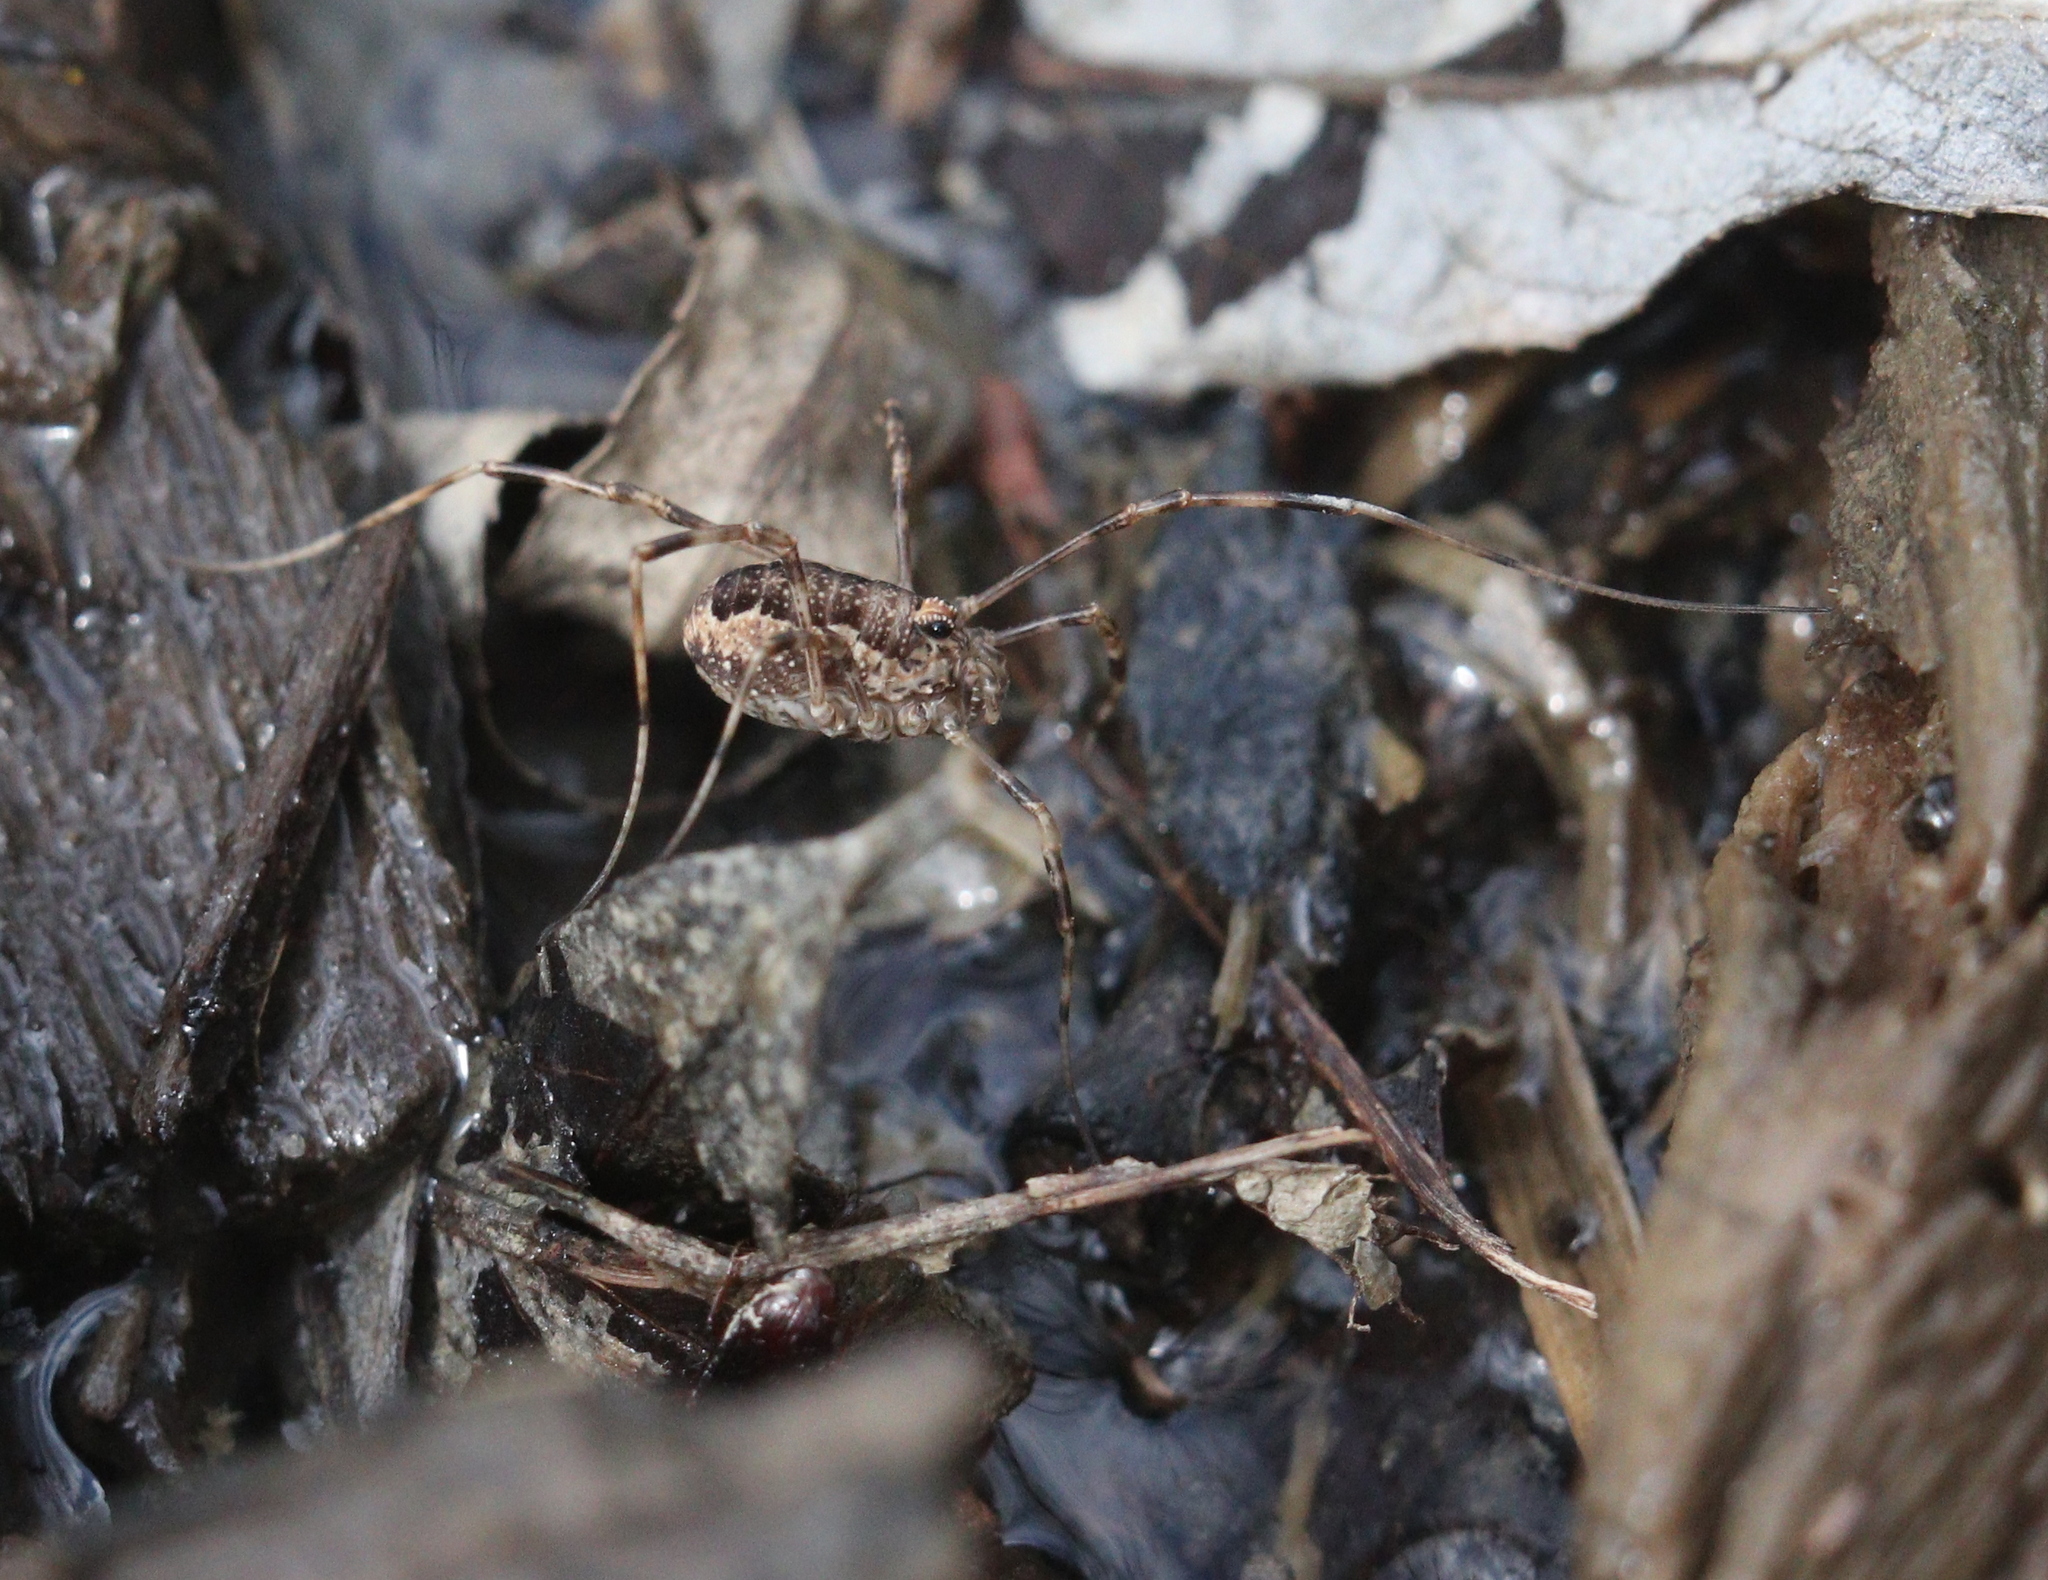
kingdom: Animalia
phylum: Arthropoda
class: Arachnida
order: Opiliones
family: Phalangiidae
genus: Rilaena
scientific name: Rilaena triangularis
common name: Spring harvestman
